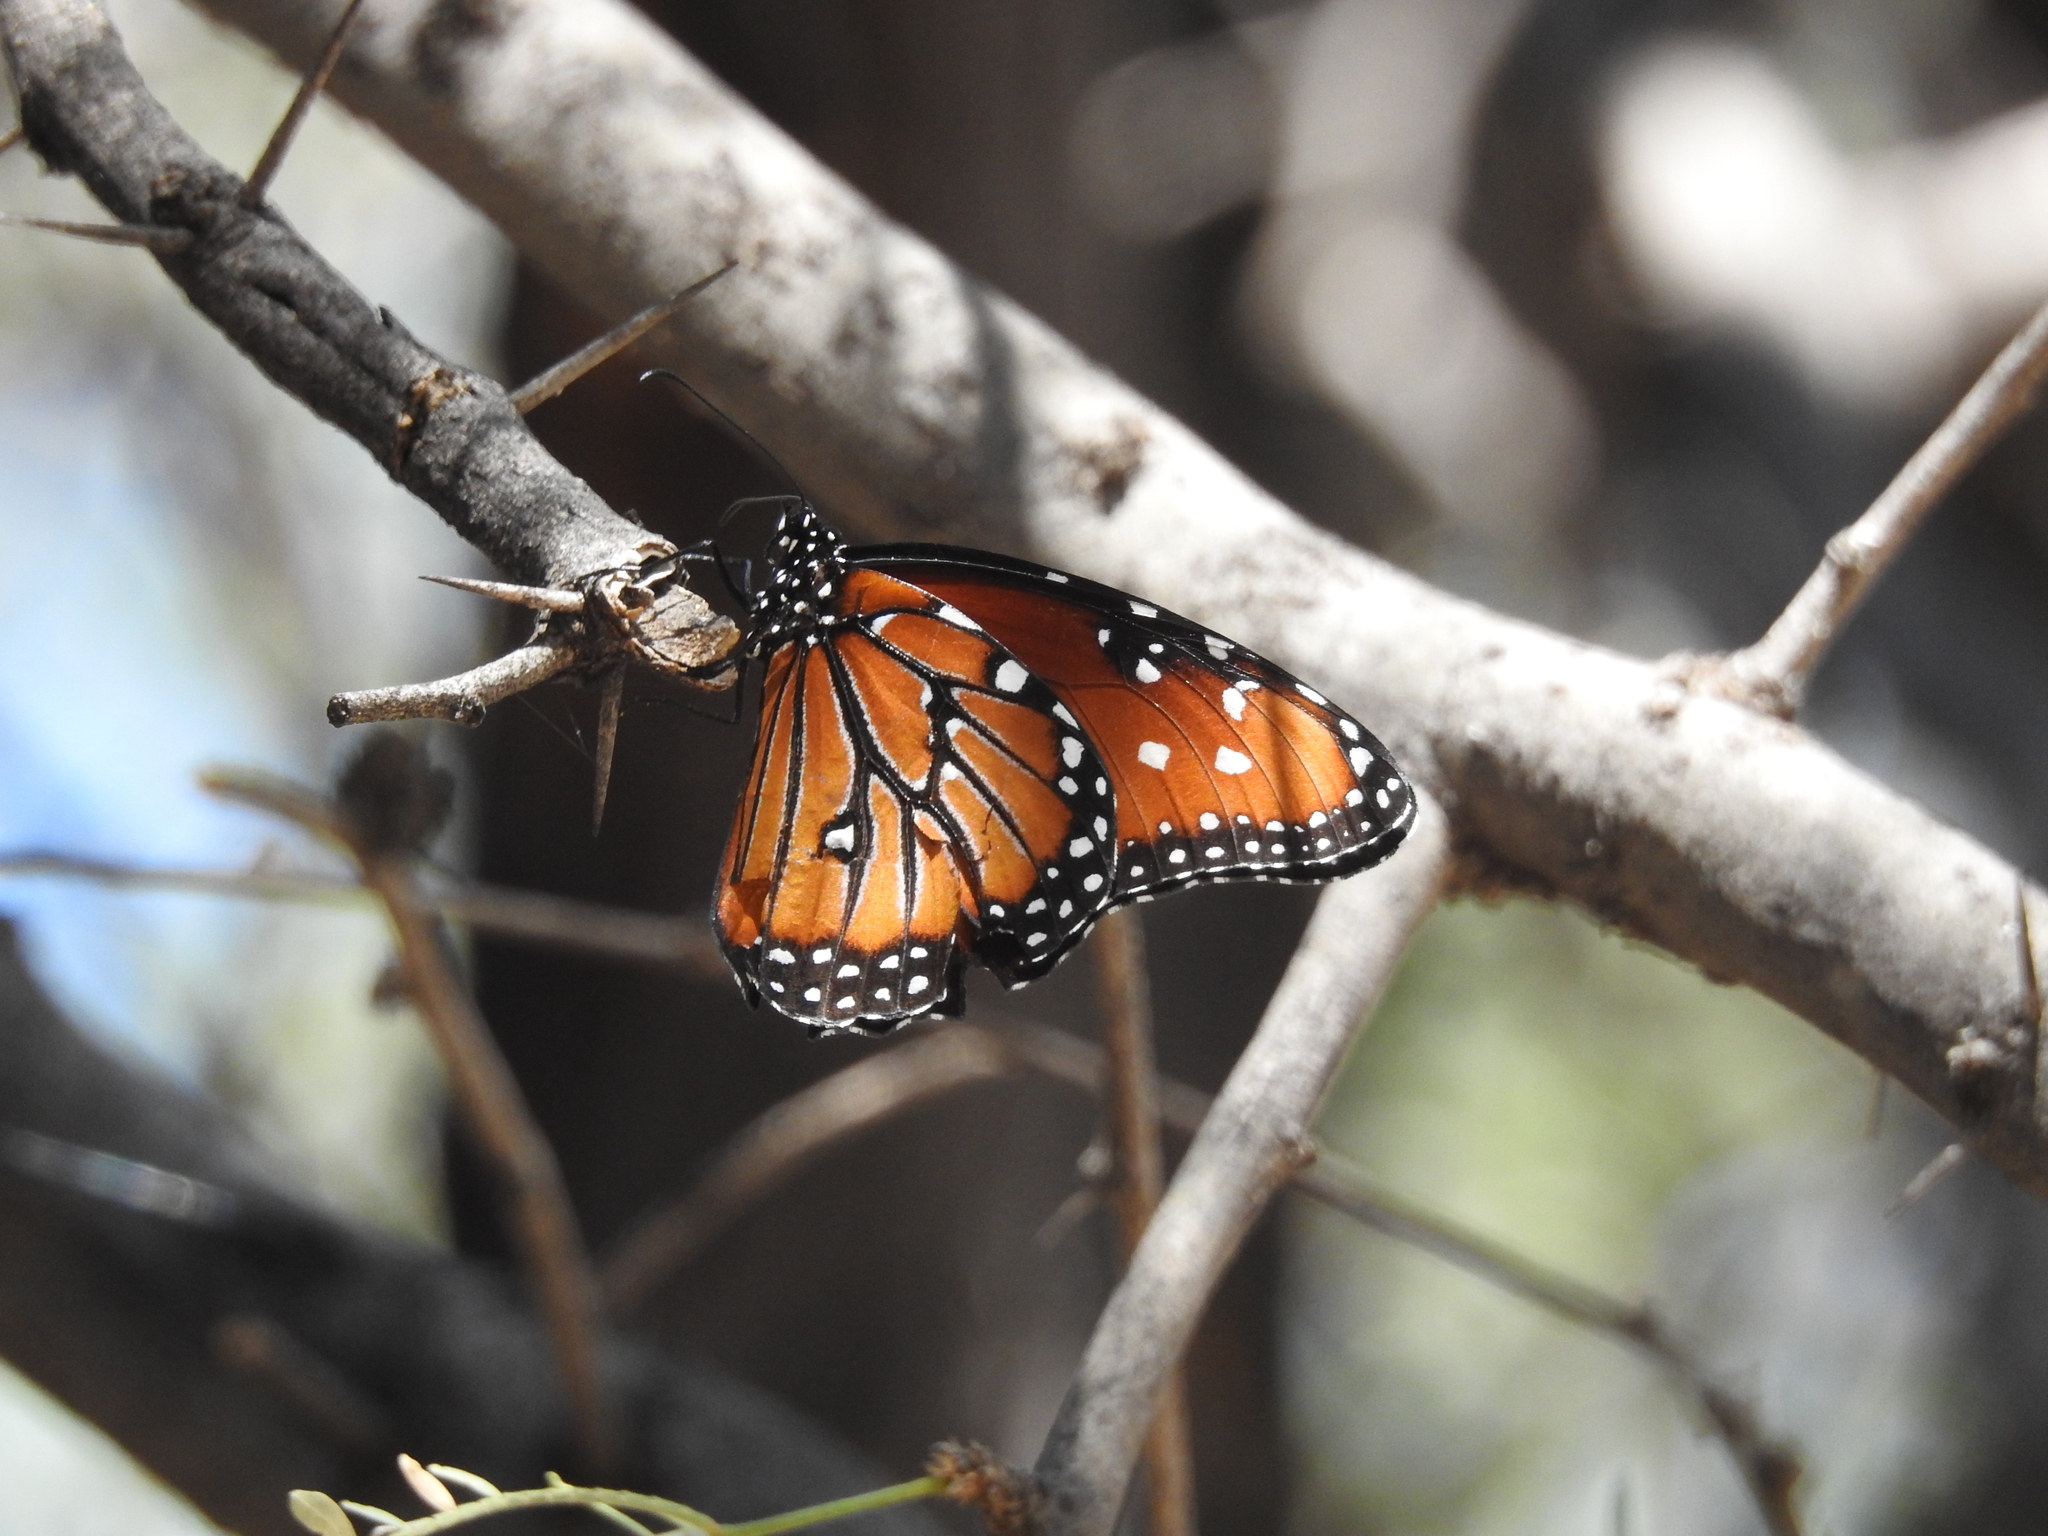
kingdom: Animalia
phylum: Arthropoda
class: Insecta
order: Lepidoptera
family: Nymphalidae
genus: Danaus
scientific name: Danaus gilippus
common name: Queen
